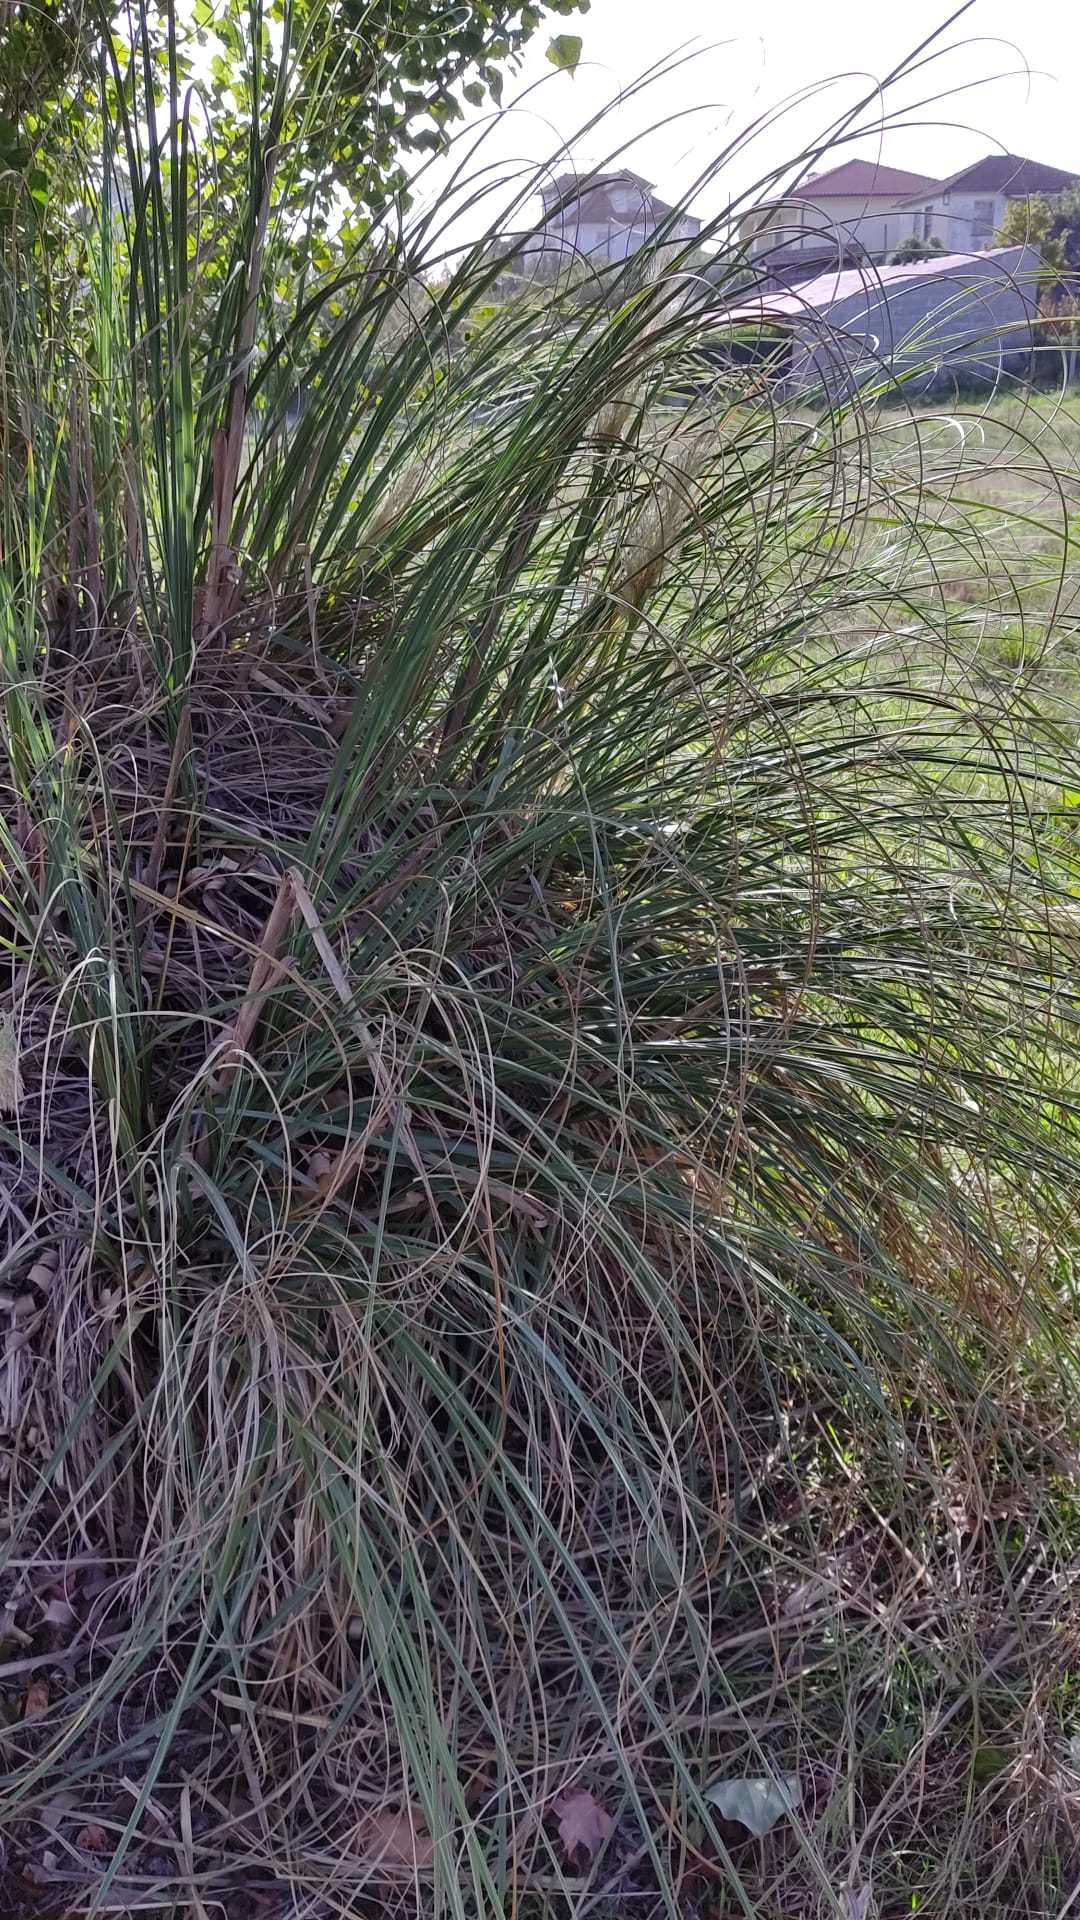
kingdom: Plantae
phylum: Tracheophyta
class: Liliopsida
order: Poales
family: Poaceae
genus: Cortaderia
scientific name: Cortaderia selloana
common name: Uruguayan pampas grass
